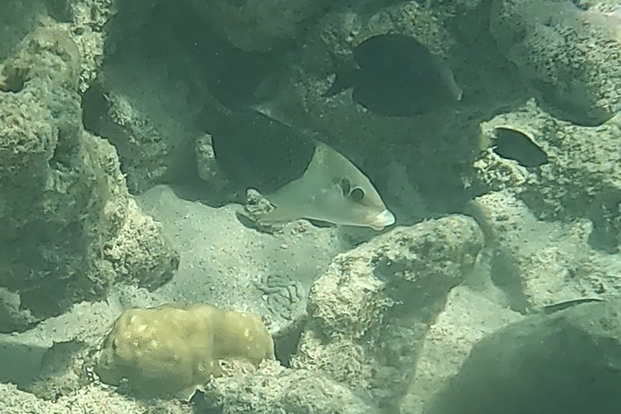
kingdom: Animalia
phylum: Chordata
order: Perciformes
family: Labridae
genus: Hemigymnus
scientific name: Hemigymnus melapterus
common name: Blackeye thicklip
